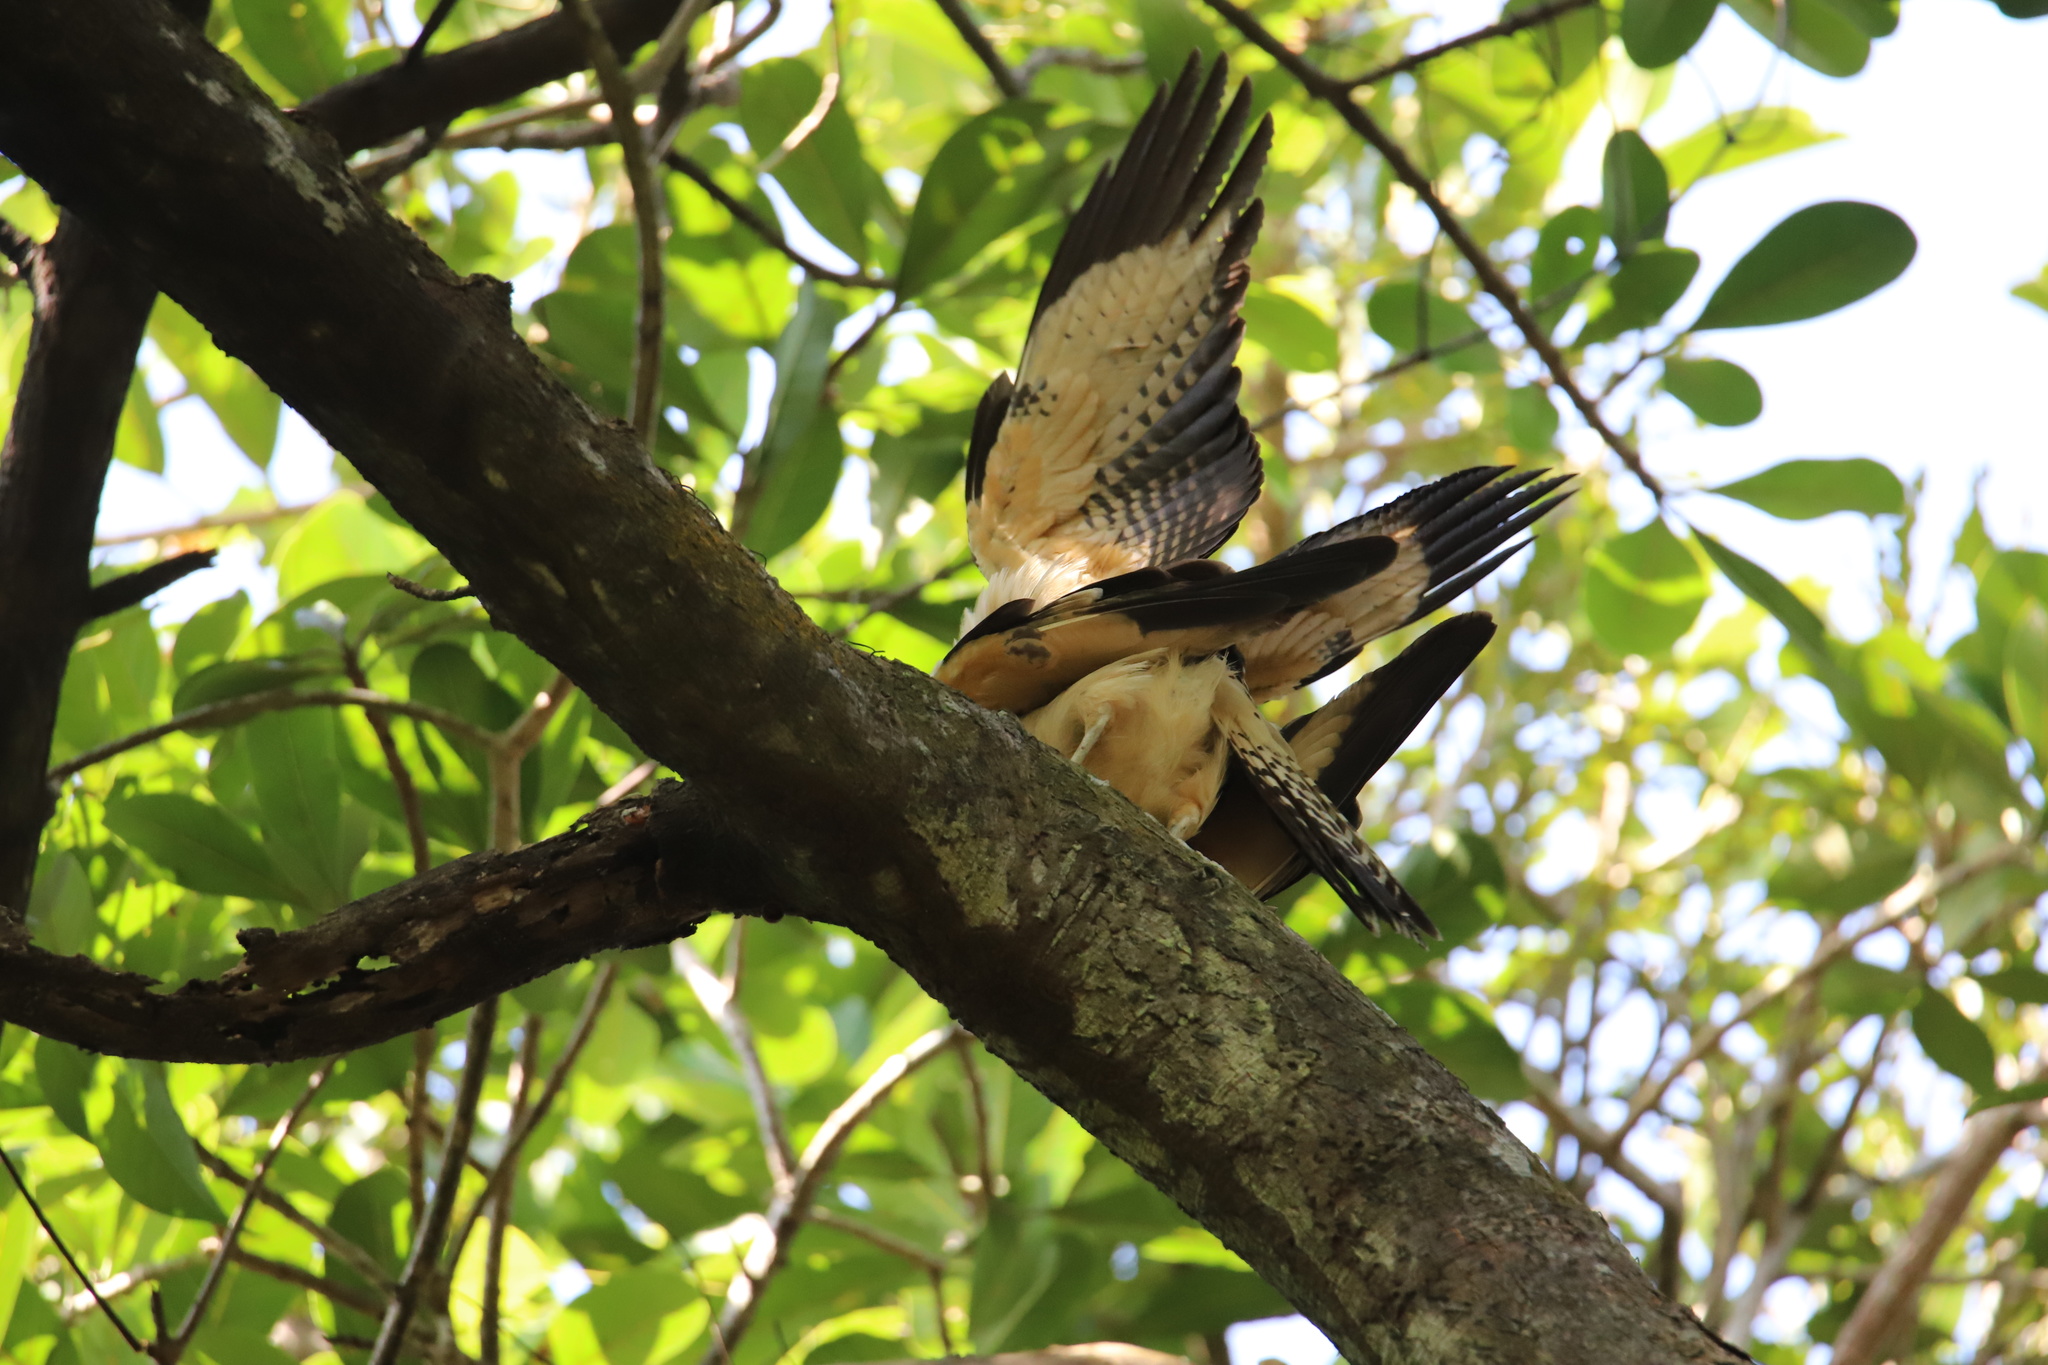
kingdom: Animalia
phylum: Chordata
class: Aves
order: Falconiformes
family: Falconidae
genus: Daptrius
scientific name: Daptrius
